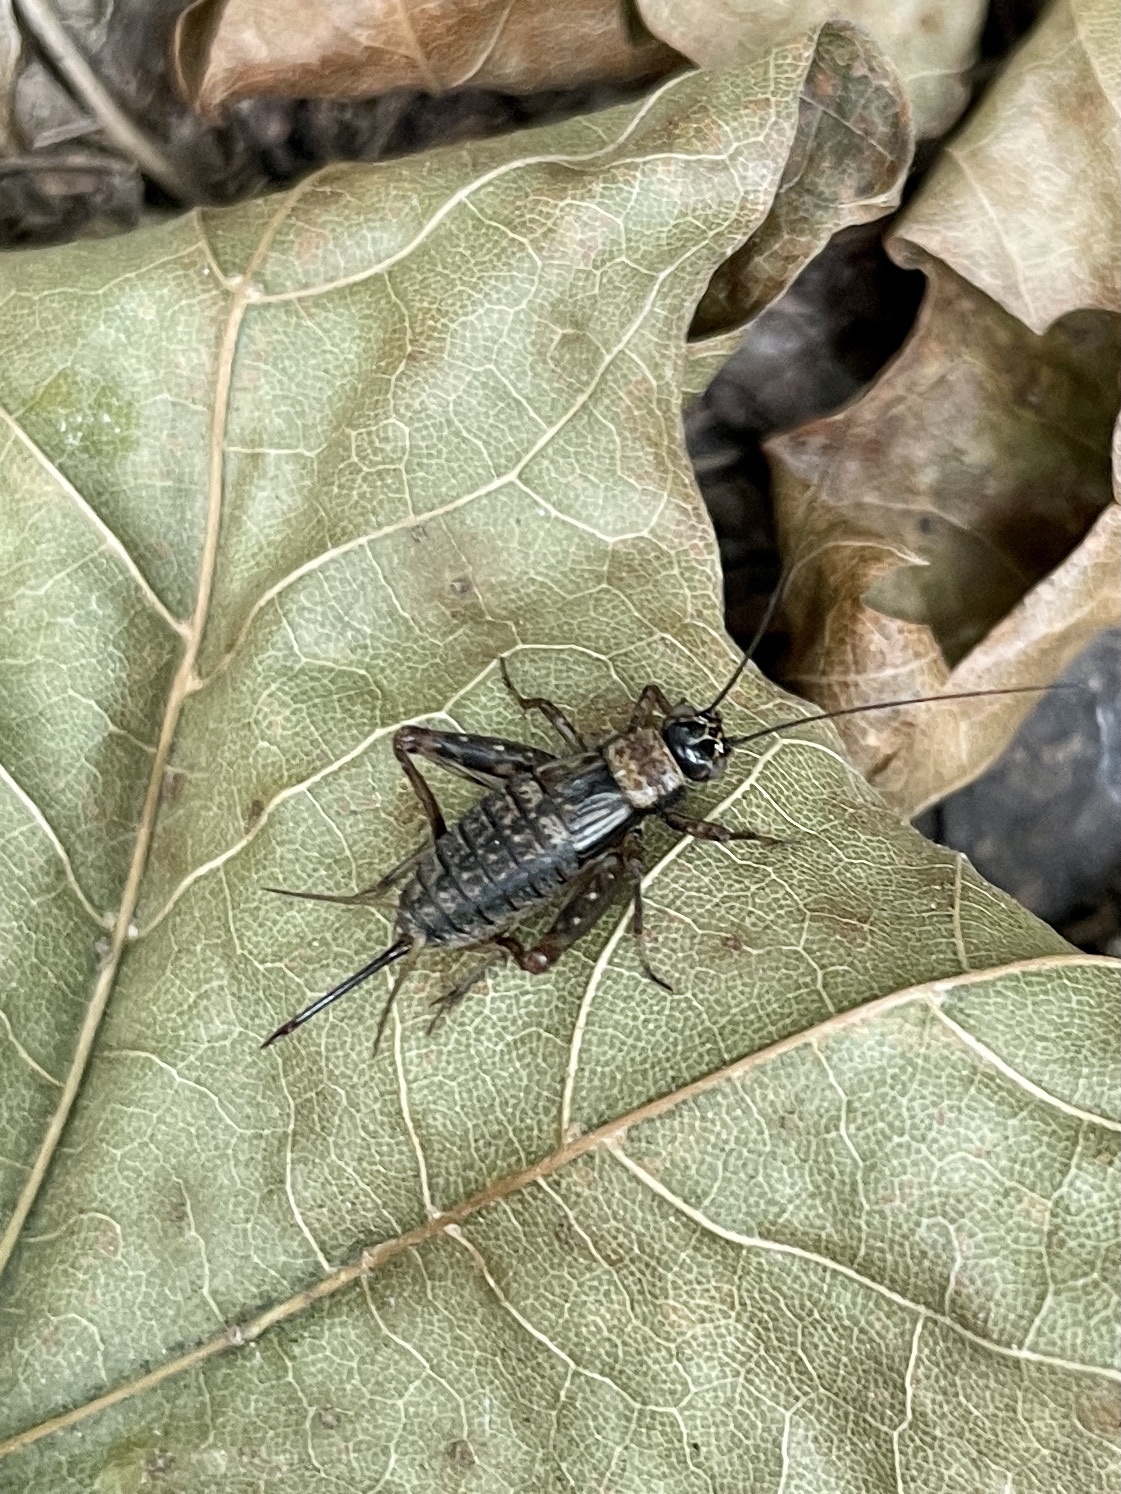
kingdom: Animalia
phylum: Arthropoda
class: Insecta
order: Orthoptera
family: Trigonidiidae
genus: Nemobius
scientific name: Nemobius sylvestris
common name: Wood-cricket
